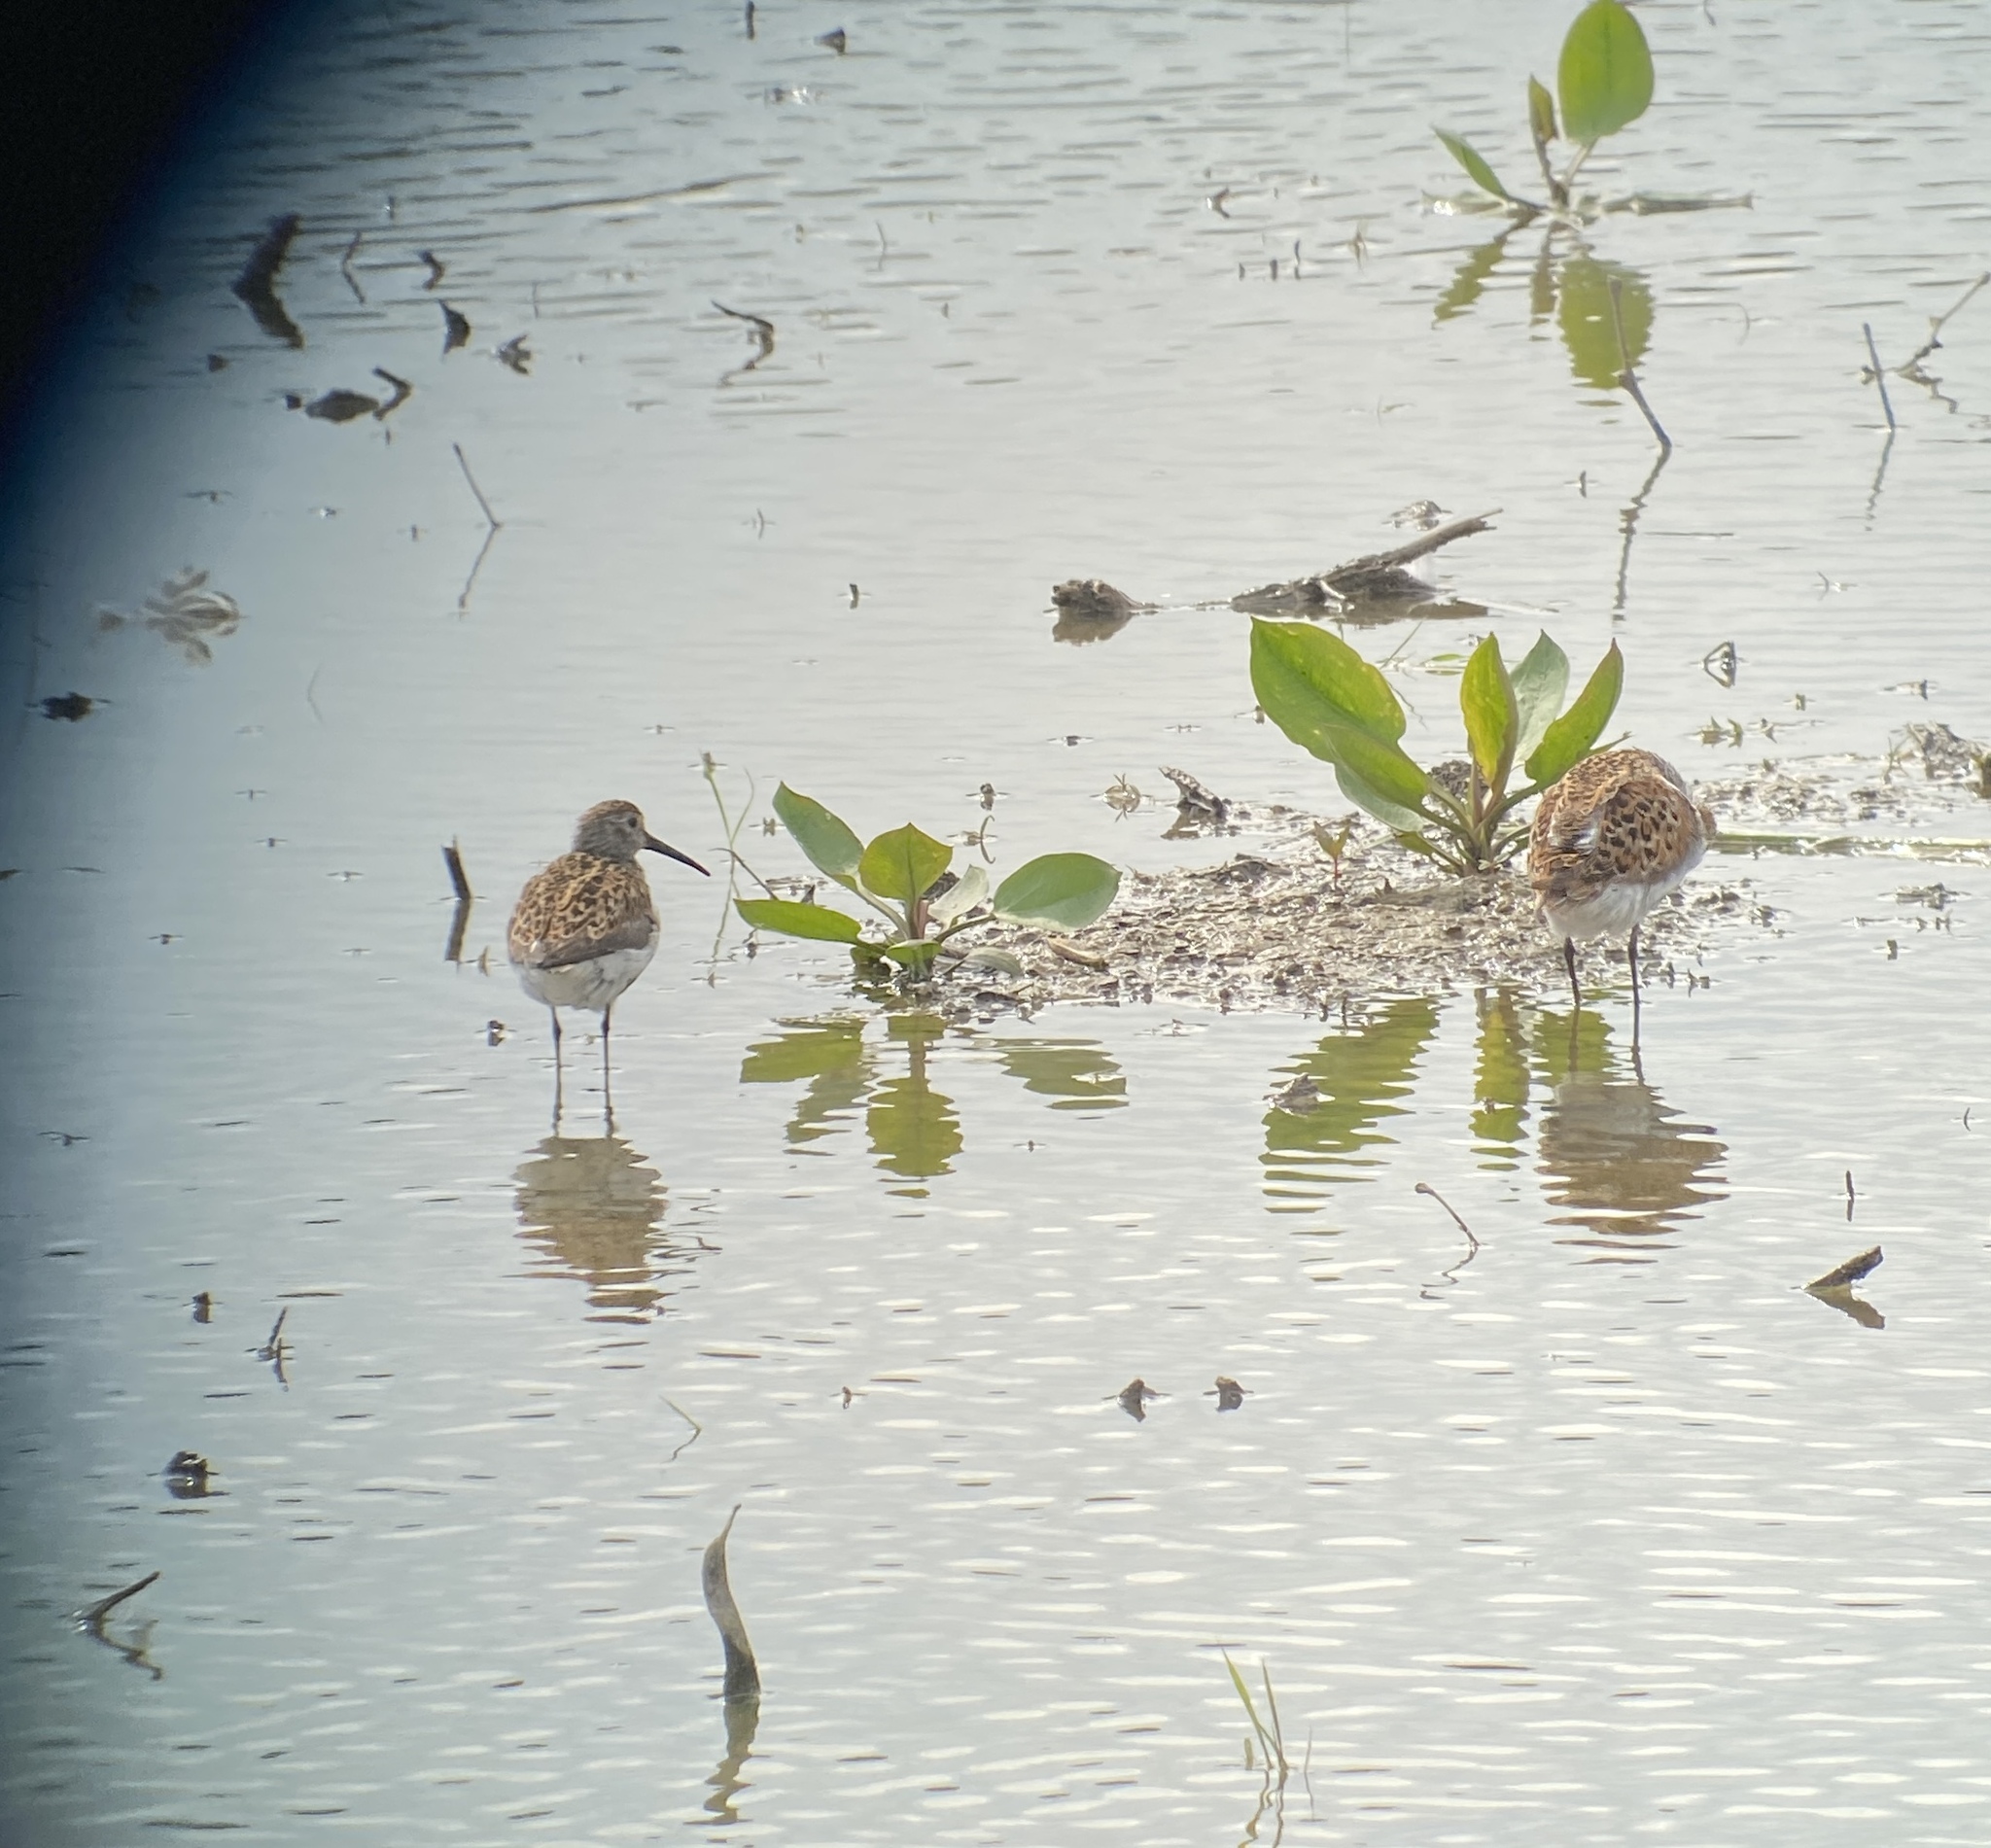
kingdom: Animalia
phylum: Chordata
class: Aves
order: Charadriiformes
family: Scolopacidae
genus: Calidris
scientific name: Calidris alpina
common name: Dunlin
